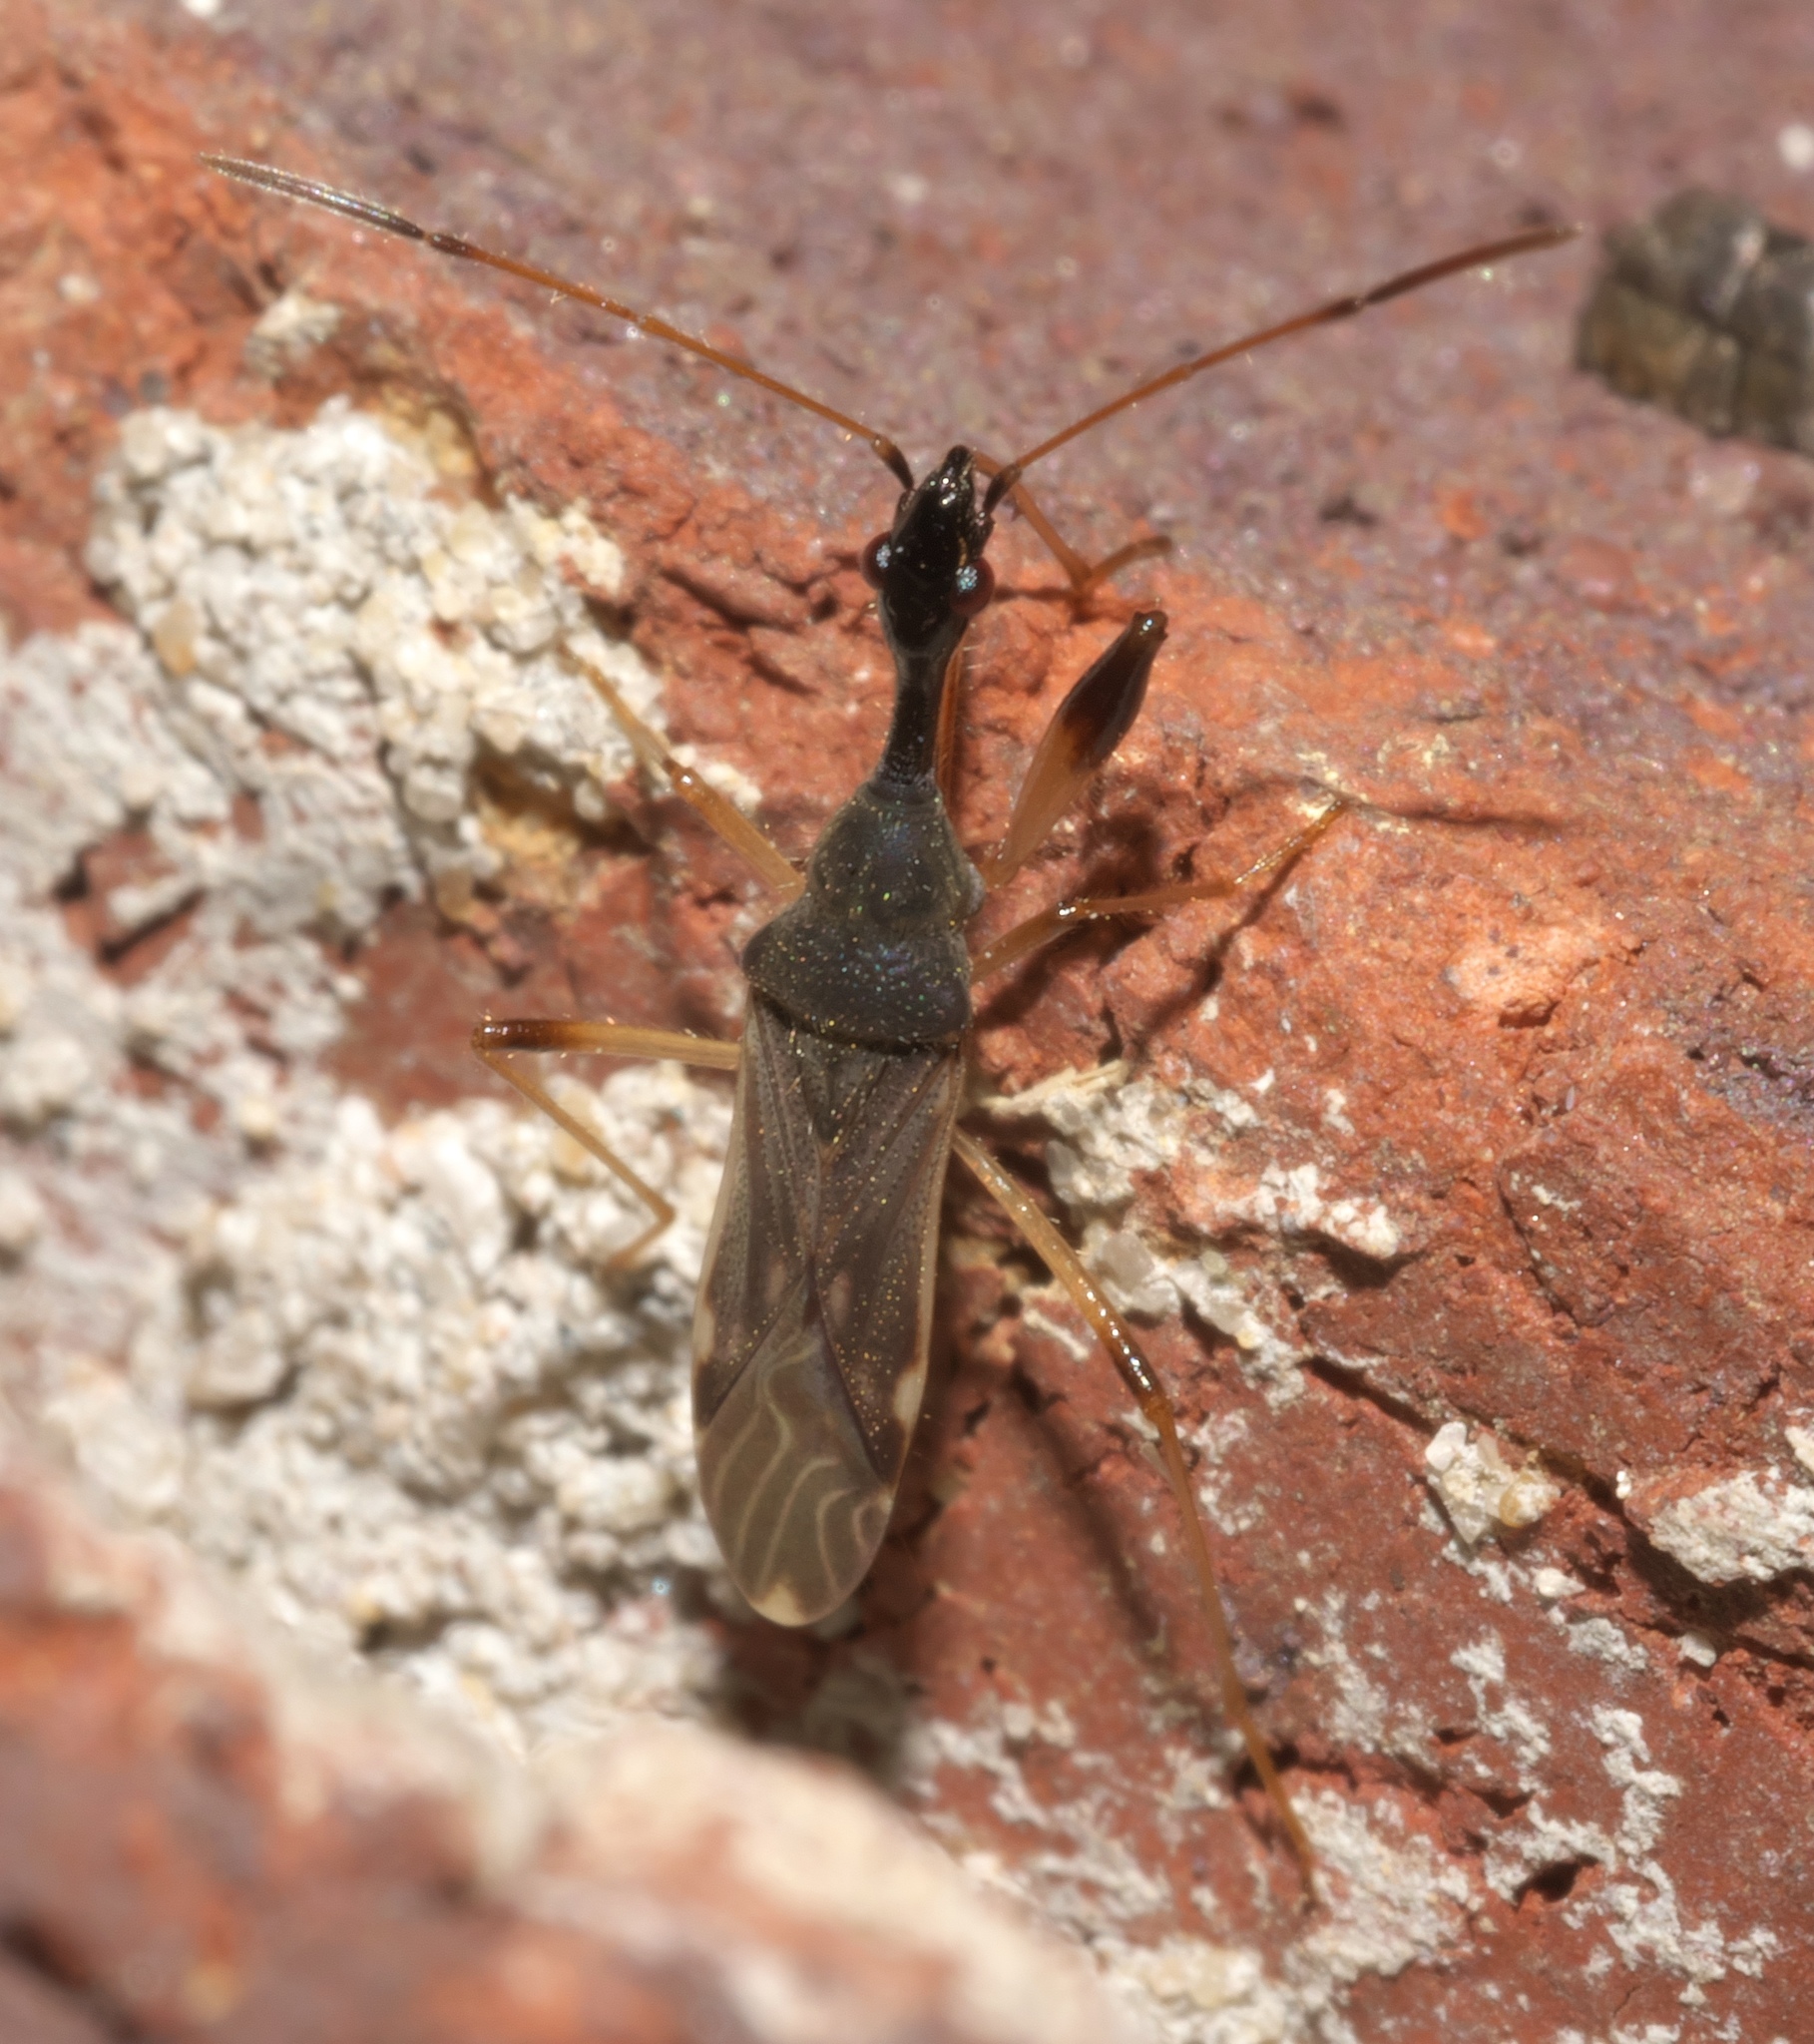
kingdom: Animalia
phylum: Arthropoda
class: Insecta
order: Hemiptera
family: Rhyparochromidae
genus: Myodocha
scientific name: Myodocha serripes
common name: Long-necked seed bug
